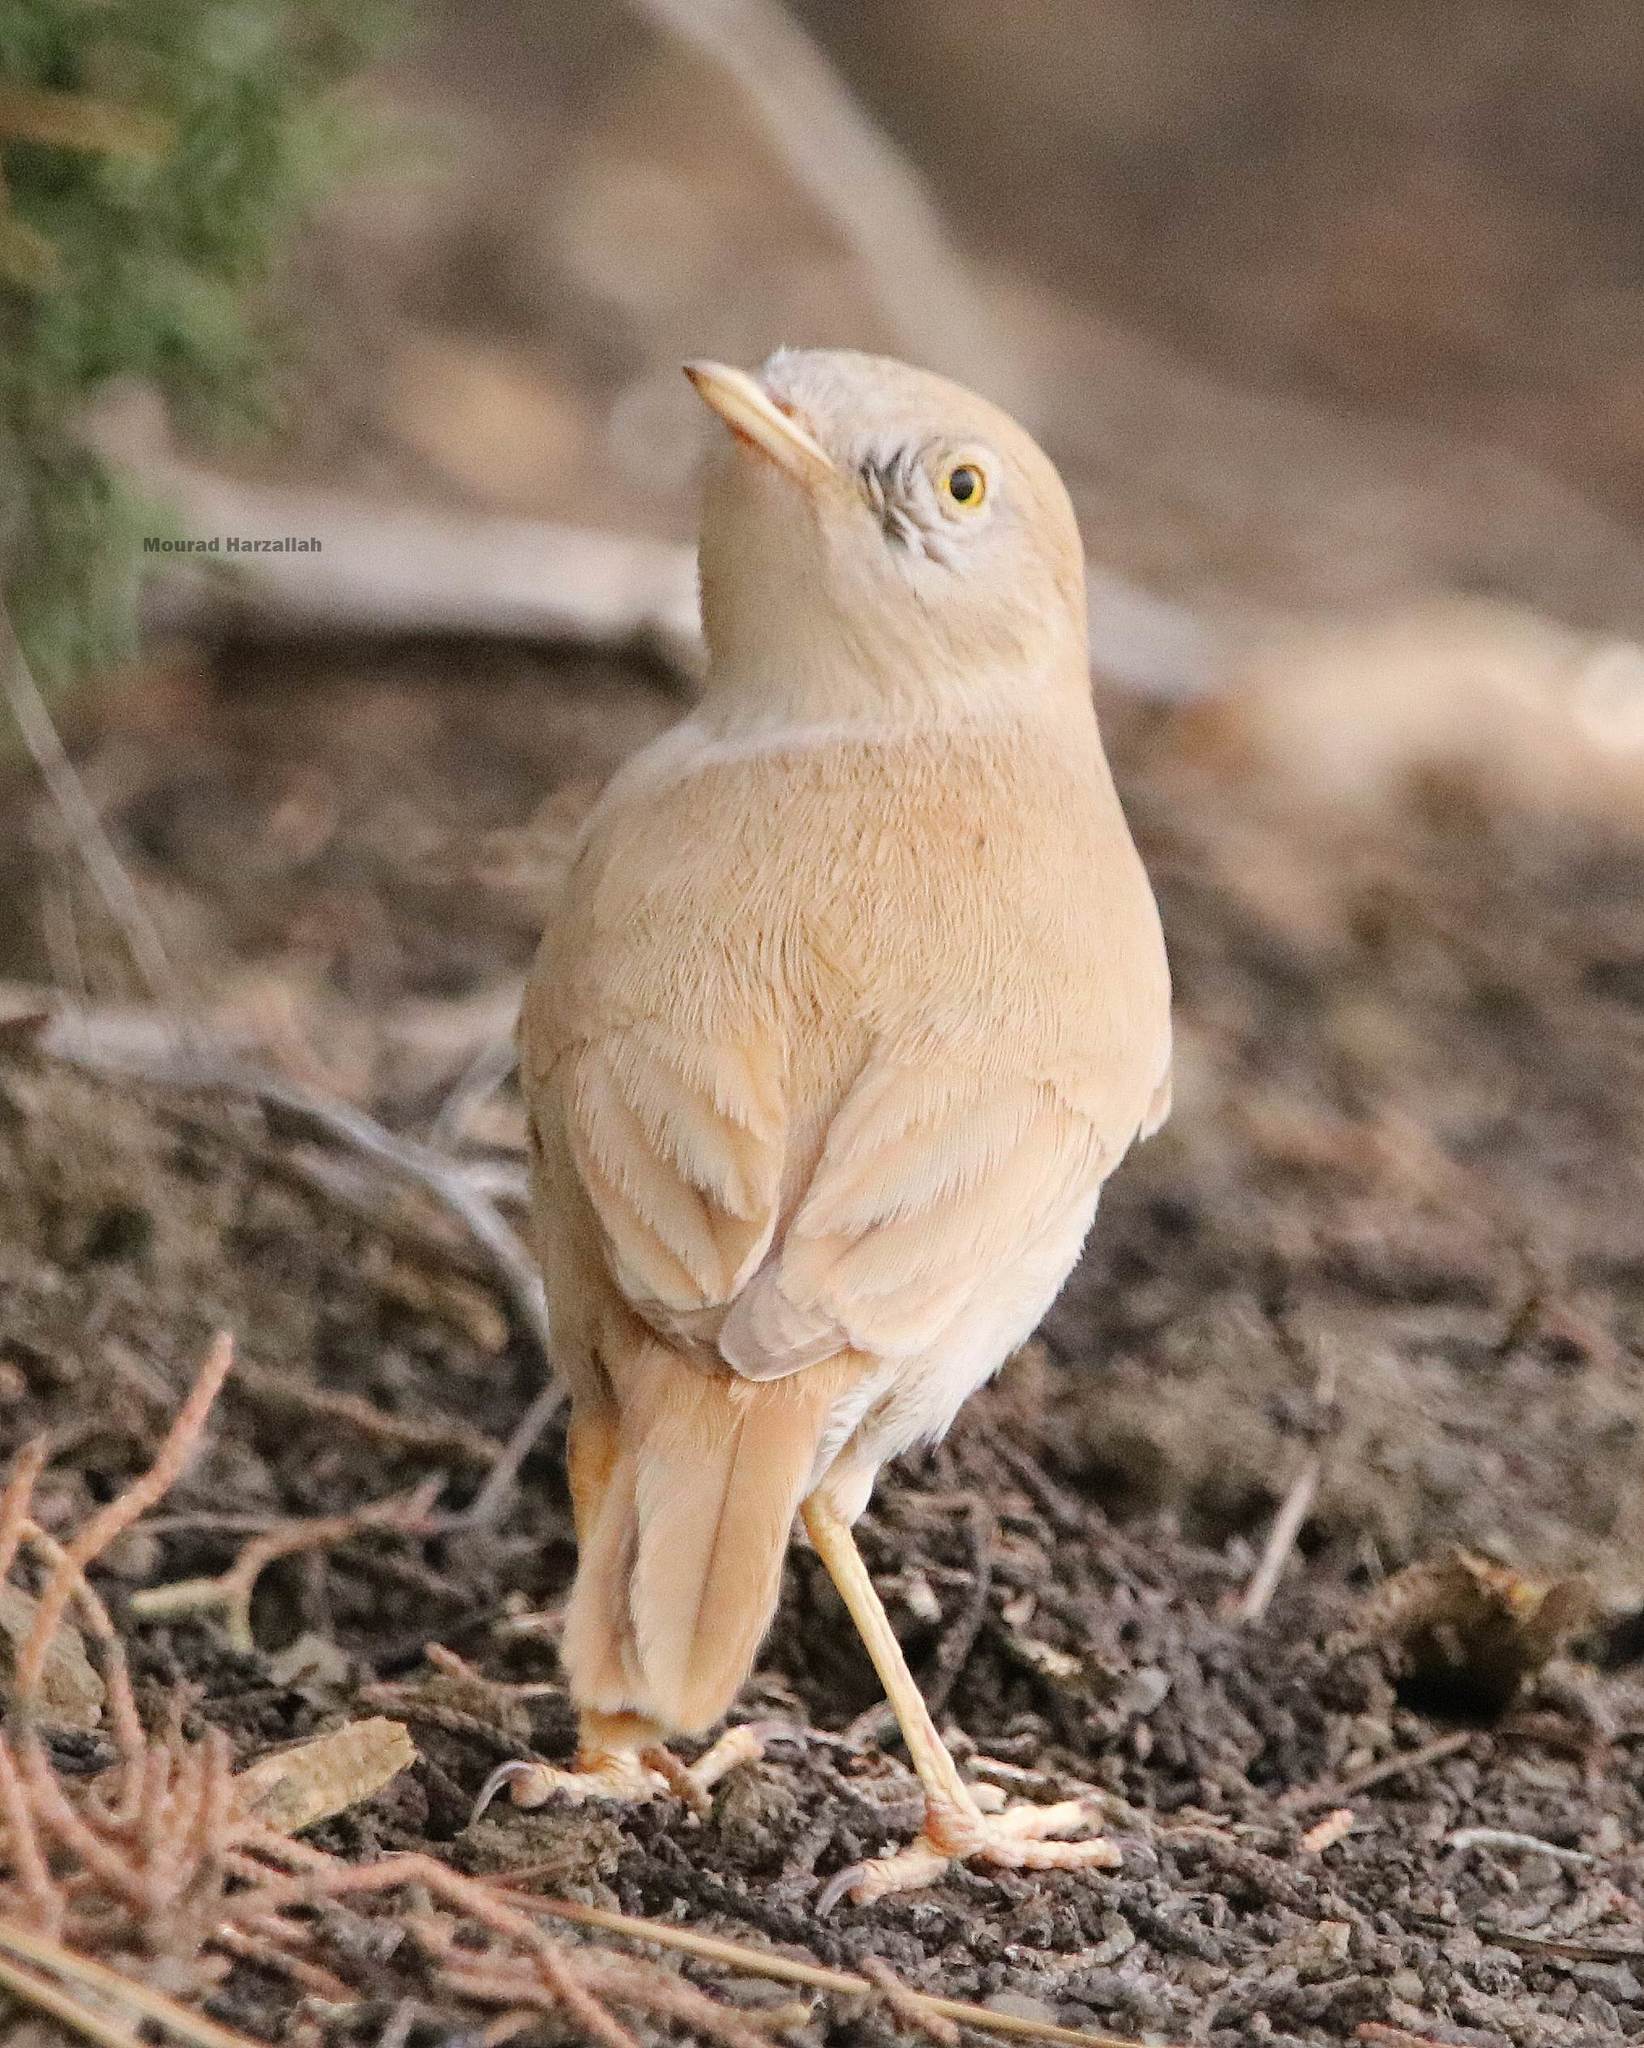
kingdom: Animalia
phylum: Chordata
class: Aves
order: Passeriformes
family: Sylviidae
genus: Sylvia
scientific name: Sylvia deserti
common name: African desert warbler
